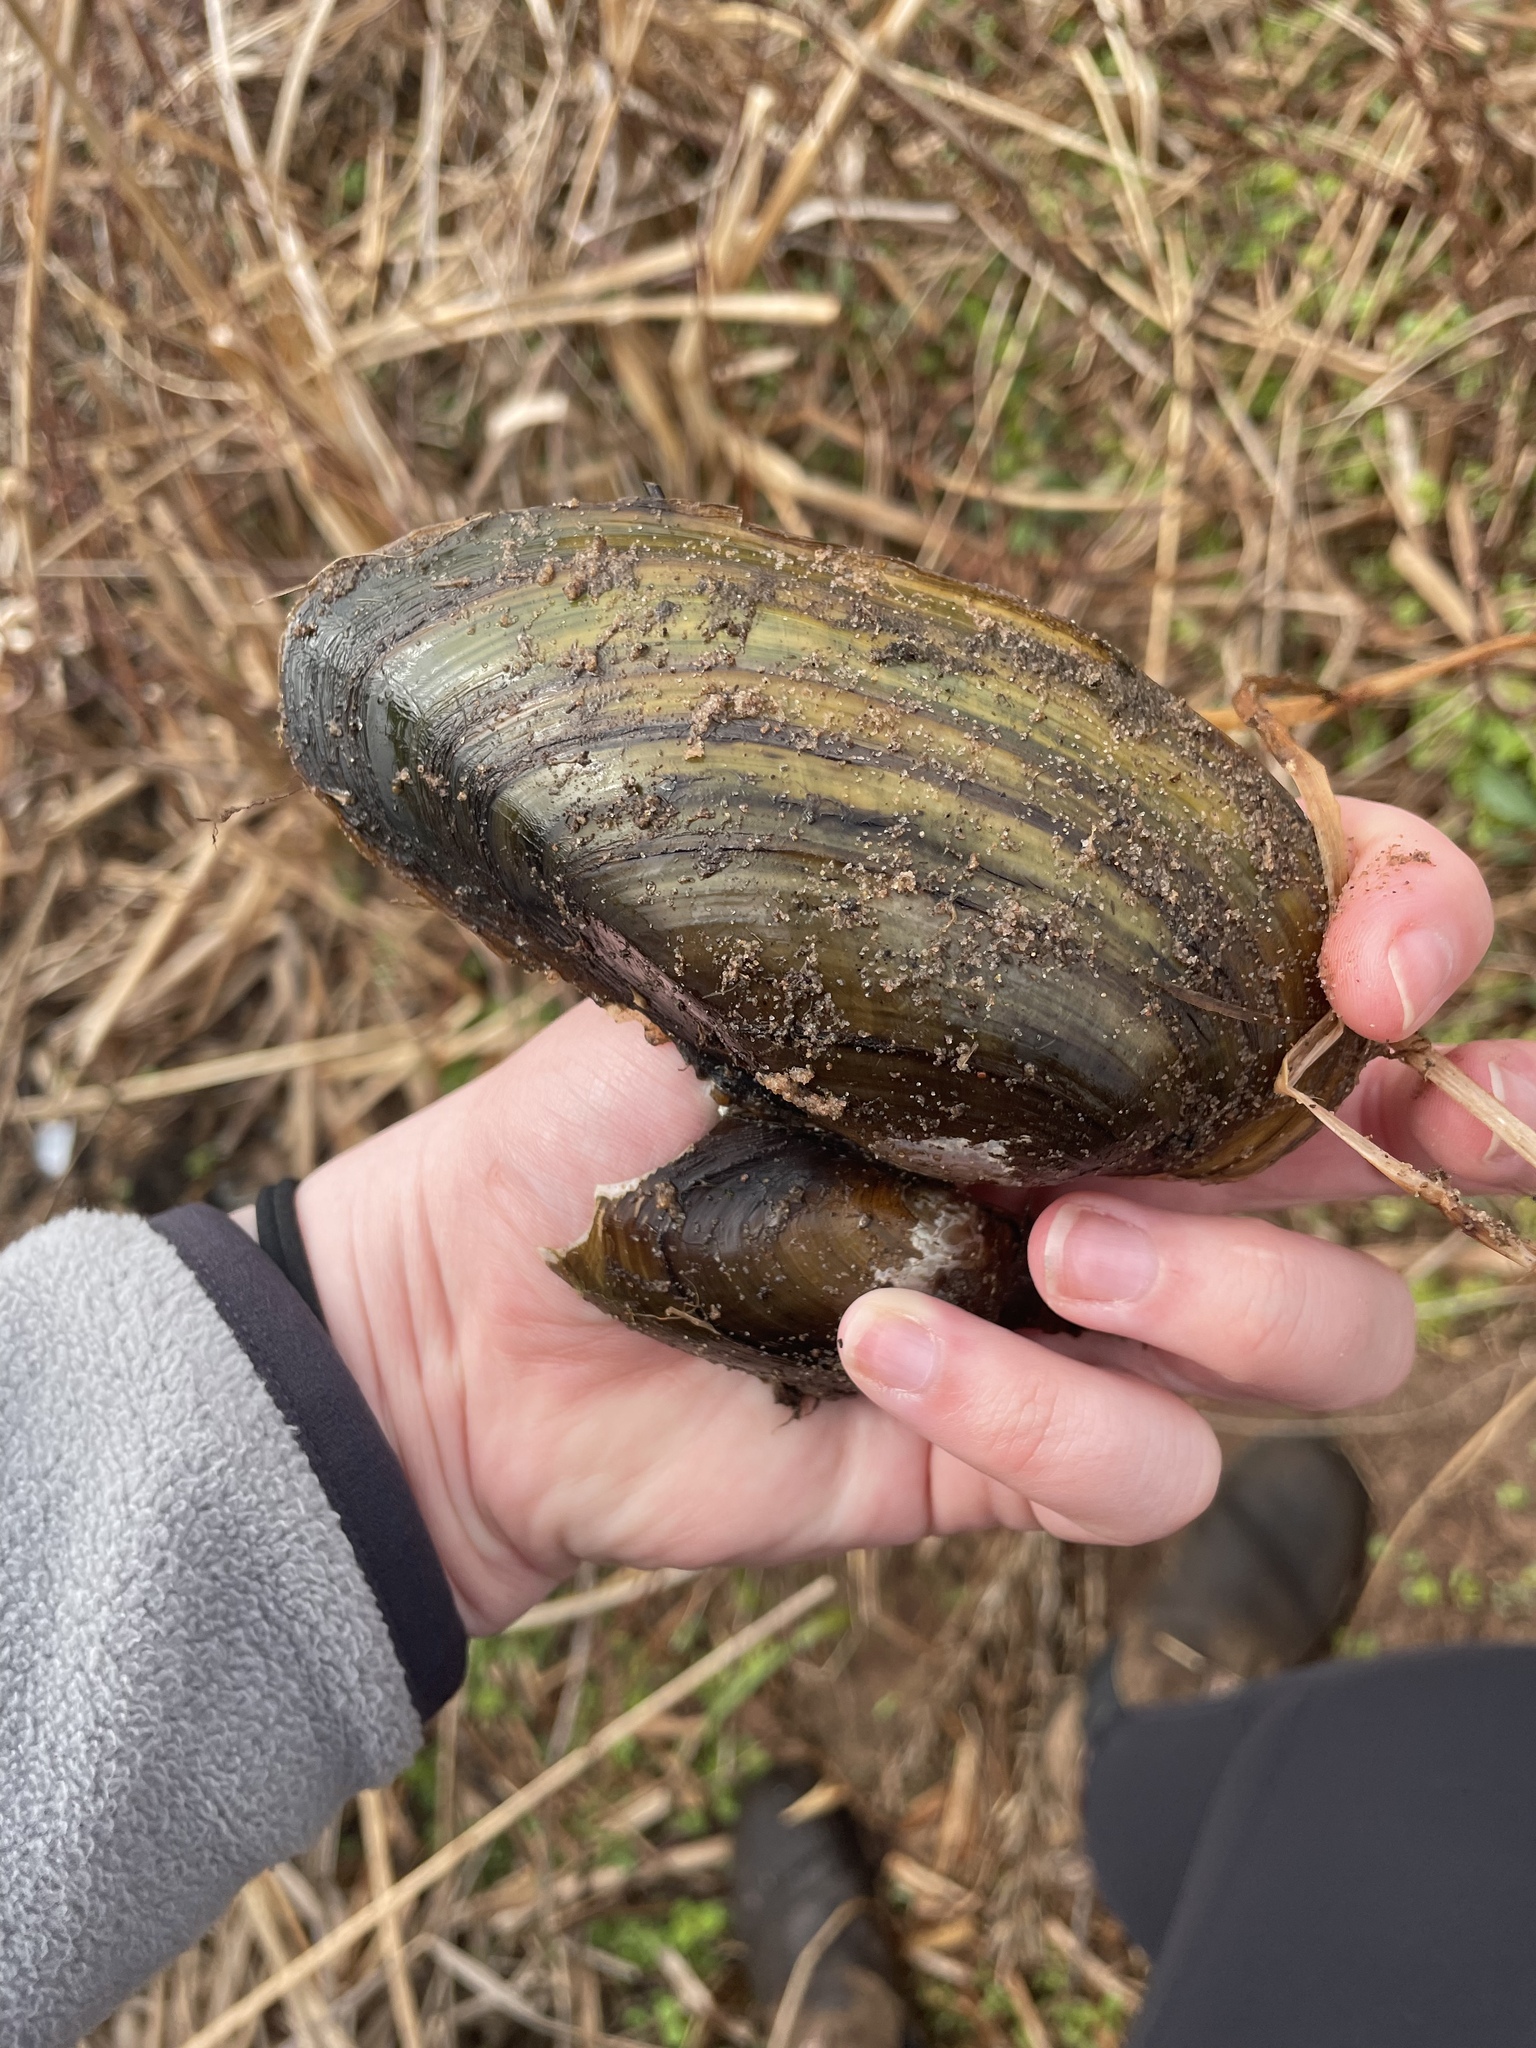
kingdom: Animalia
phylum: Mollusca
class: Bivalvia
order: Unionida
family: Unionidae
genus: Pyganodon
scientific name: Pyganodon cataracta
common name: Eastern floater
